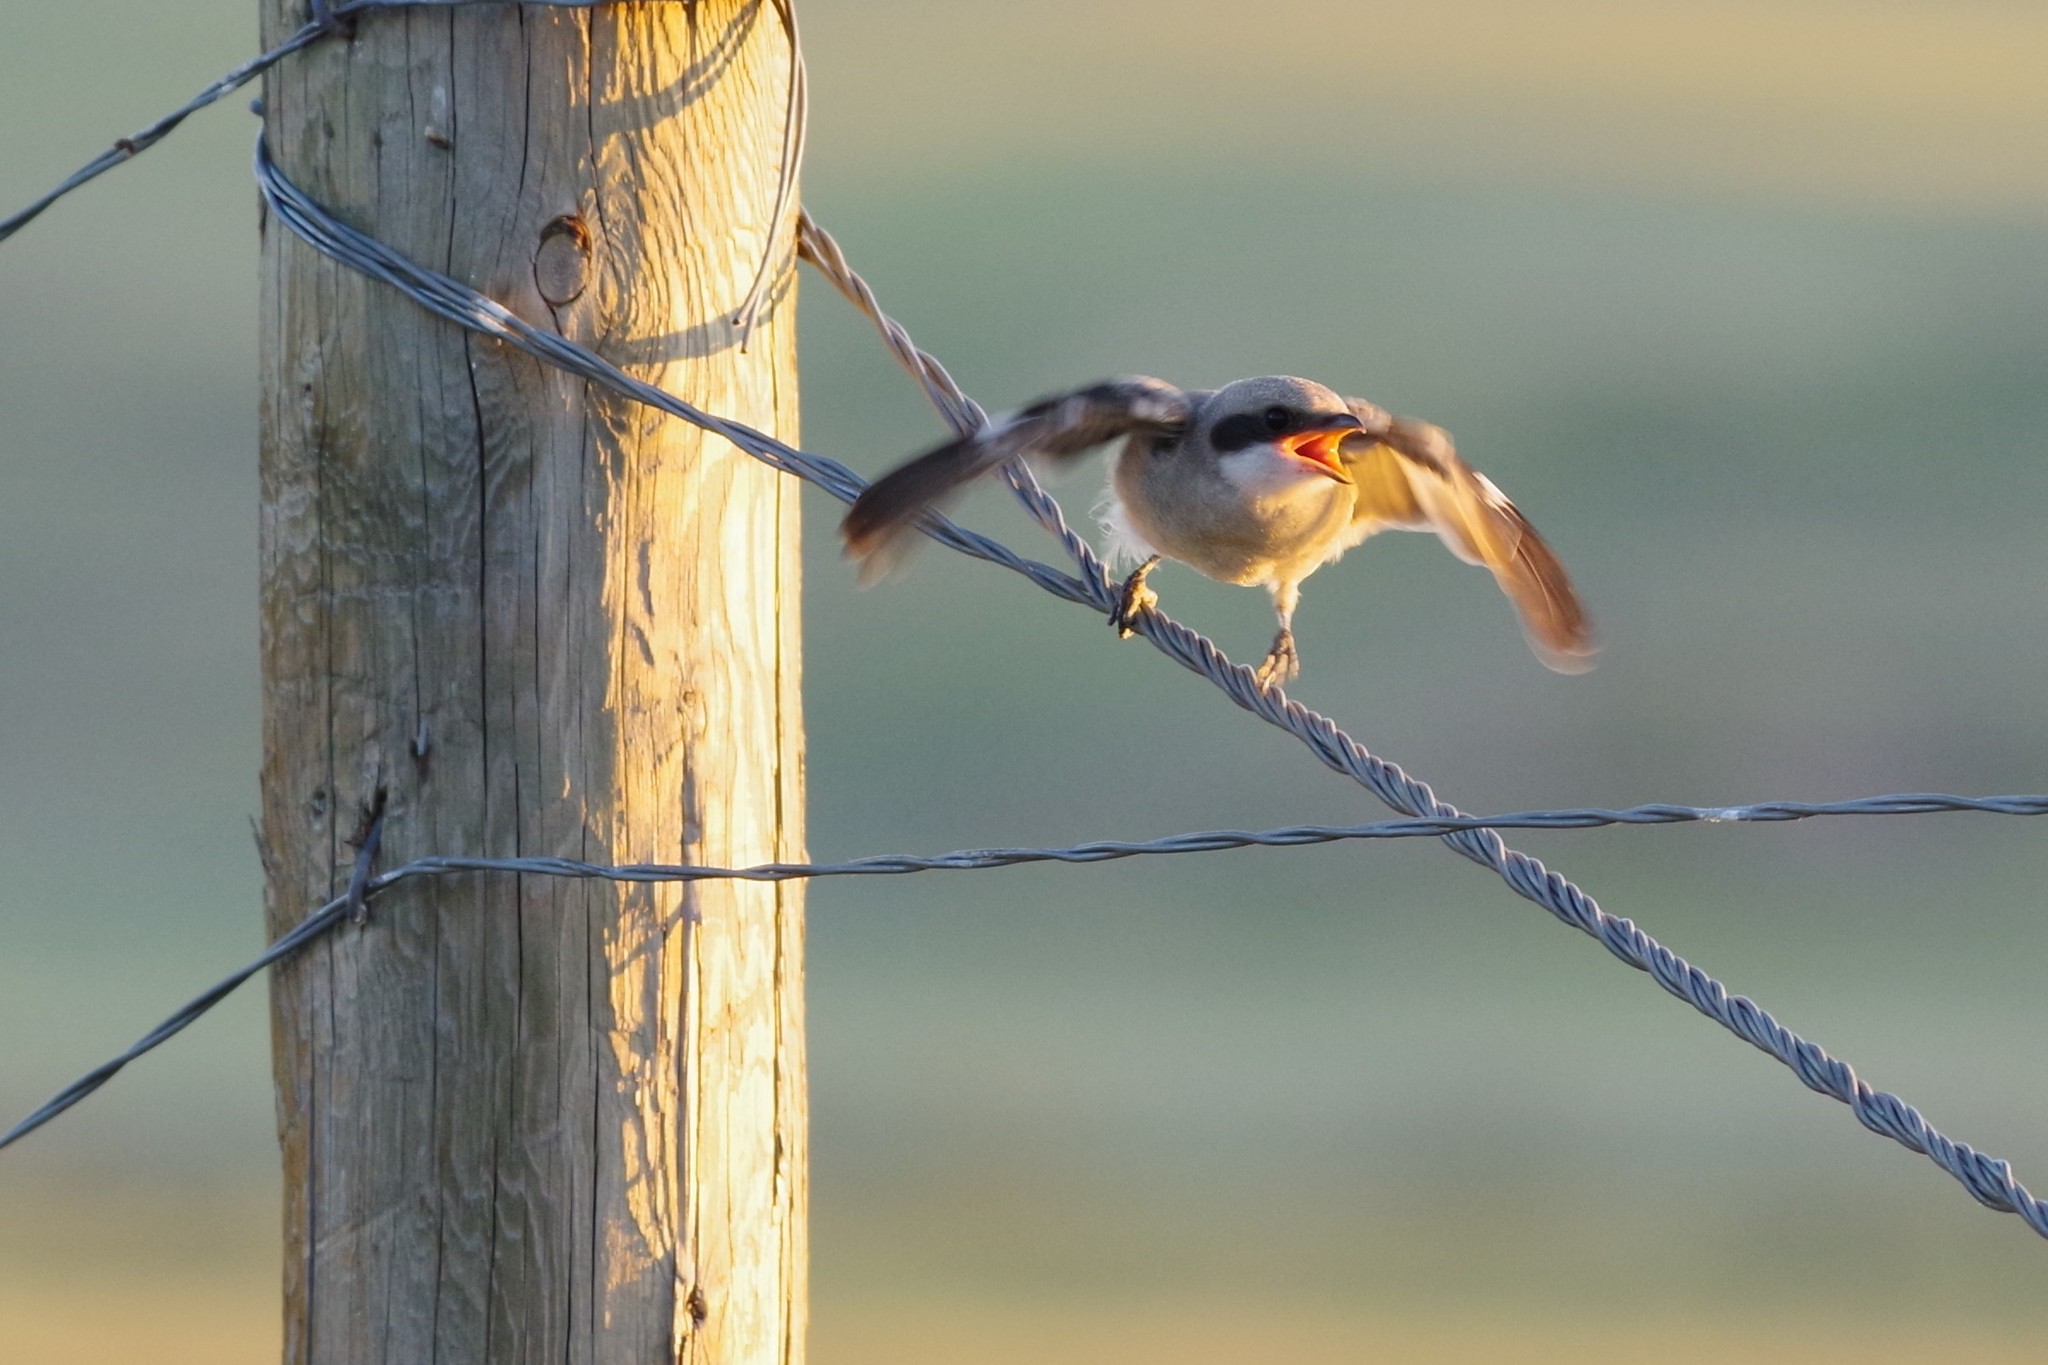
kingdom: Animalia
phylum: Chordata
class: Aves
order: Passeriformes
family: Laniidae
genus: Lanius
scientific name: Lanius ludovicianus
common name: Loggerhead shrike
